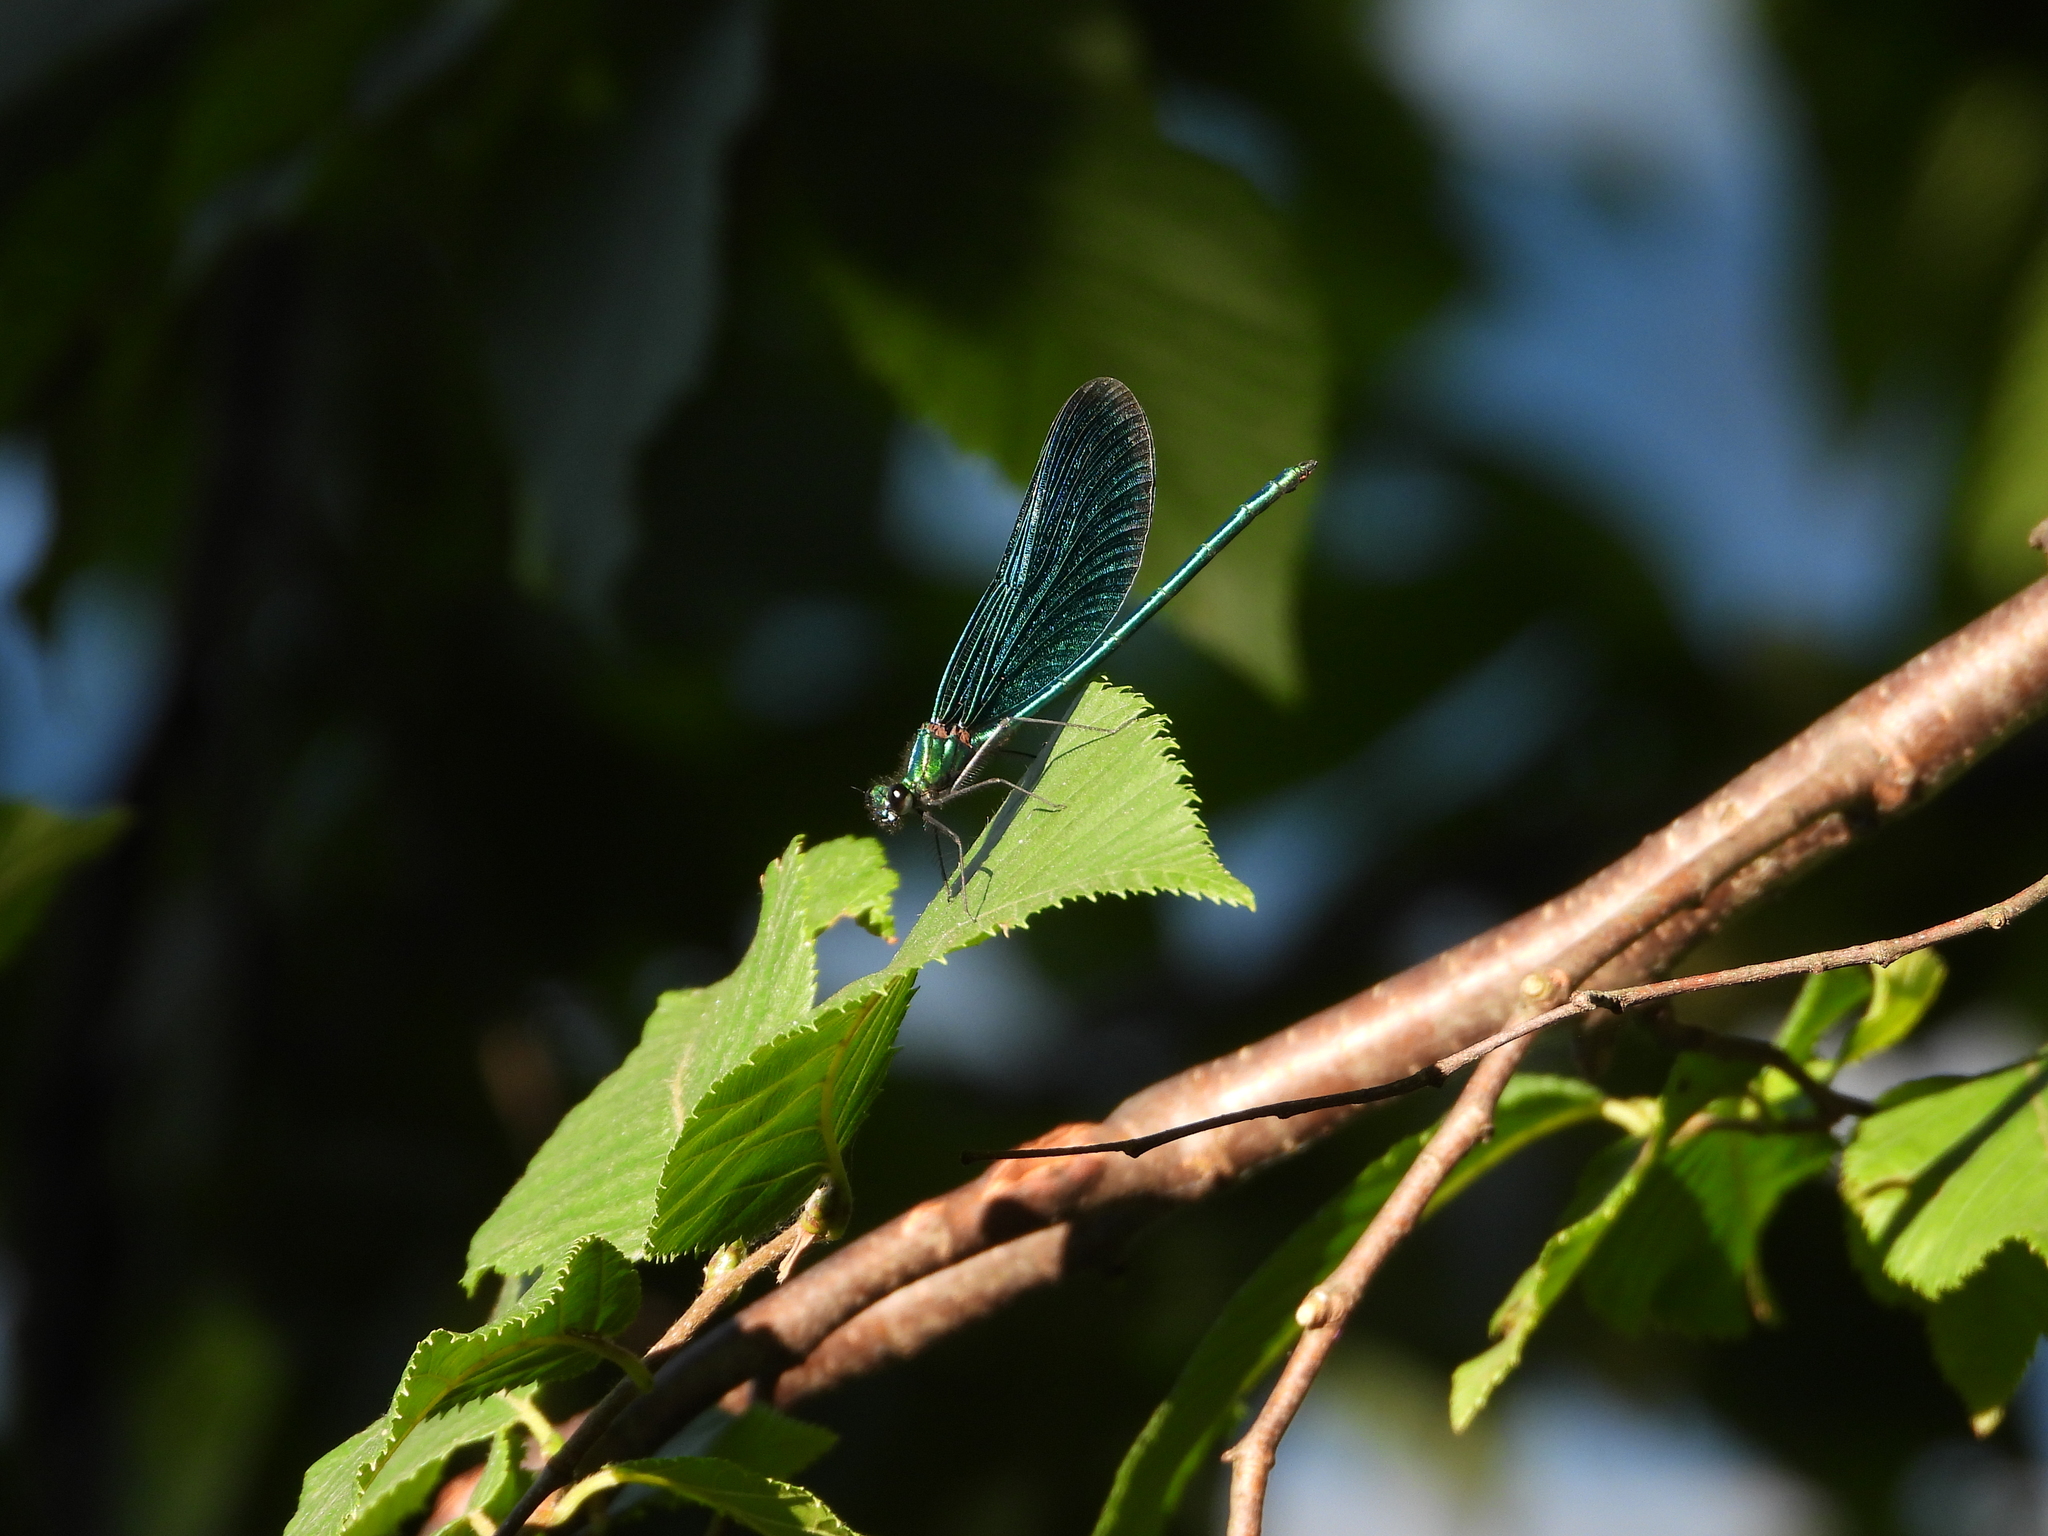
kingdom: Animalia
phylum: Arthropoda
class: Insecta
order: Odonata
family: Calopterygidae
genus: Calopteryx
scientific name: Calopteryx virgo
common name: Beautiful demoiselle
